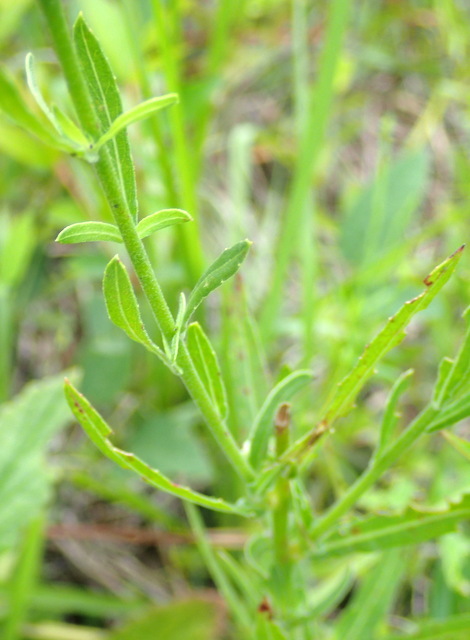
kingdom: Plantae
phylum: Tracheophyta
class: Magnoliopsida
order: Myrtales
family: Onagraceae
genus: Oenothera
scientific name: Oenothera simulans
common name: Southern beeblossom
